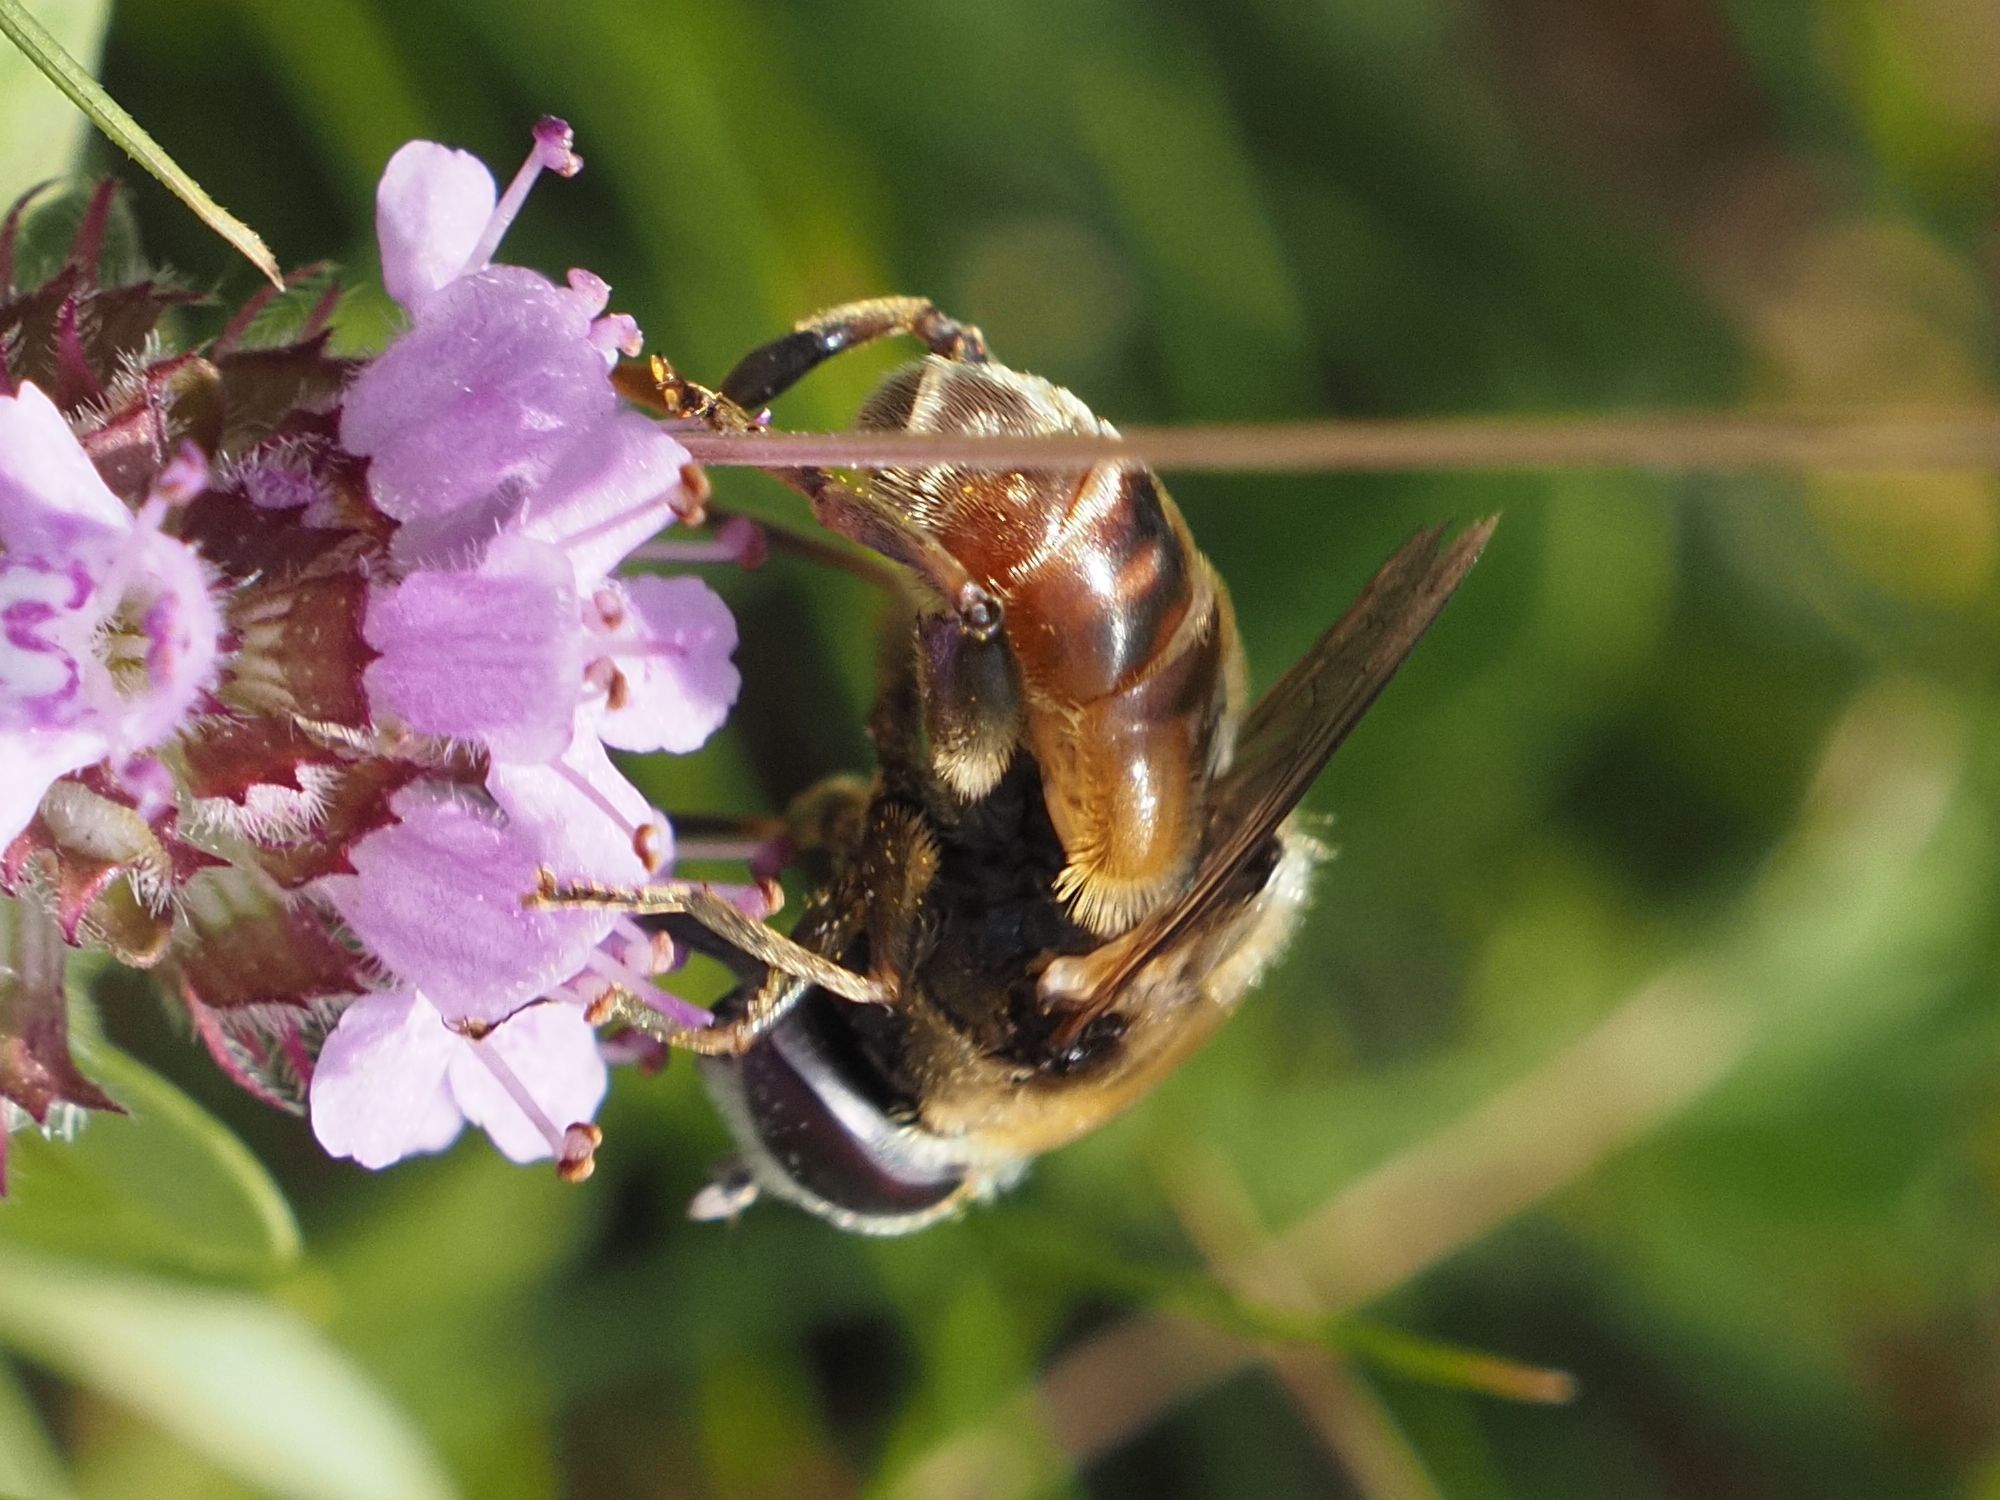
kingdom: Animalia
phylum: Arthropoda
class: Insecta
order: Diptera
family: Syrphidae
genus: Merodon
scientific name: Merodon albifrons
